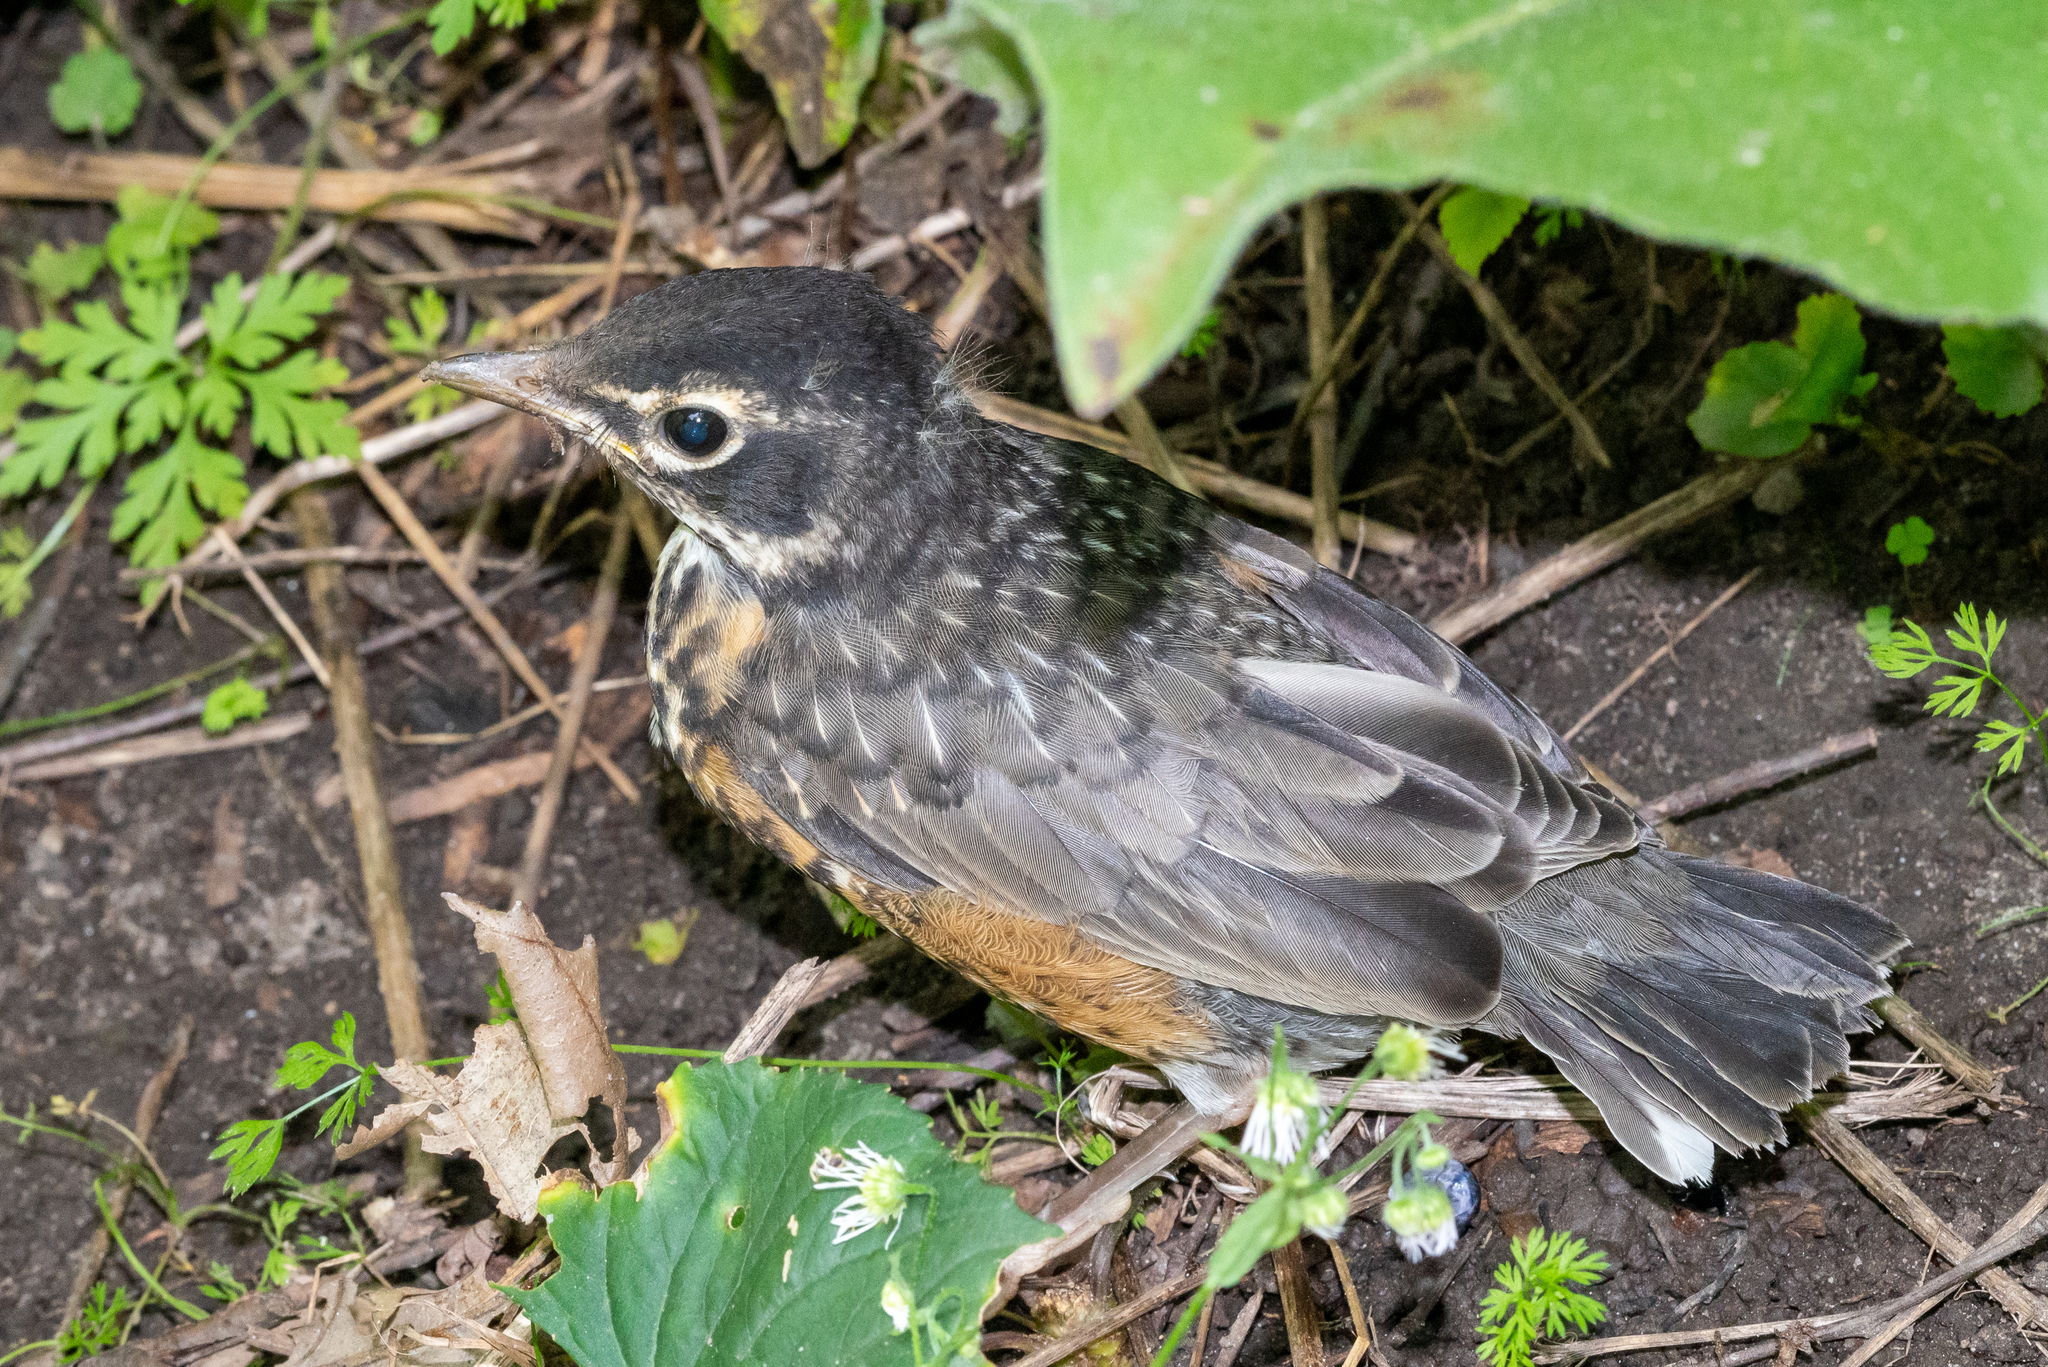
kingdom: Animalia
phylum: Chordata
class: Aves
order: Passeriformes
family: Turdidae
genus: Turdus
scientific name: Turdus migratorius
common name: American robin
